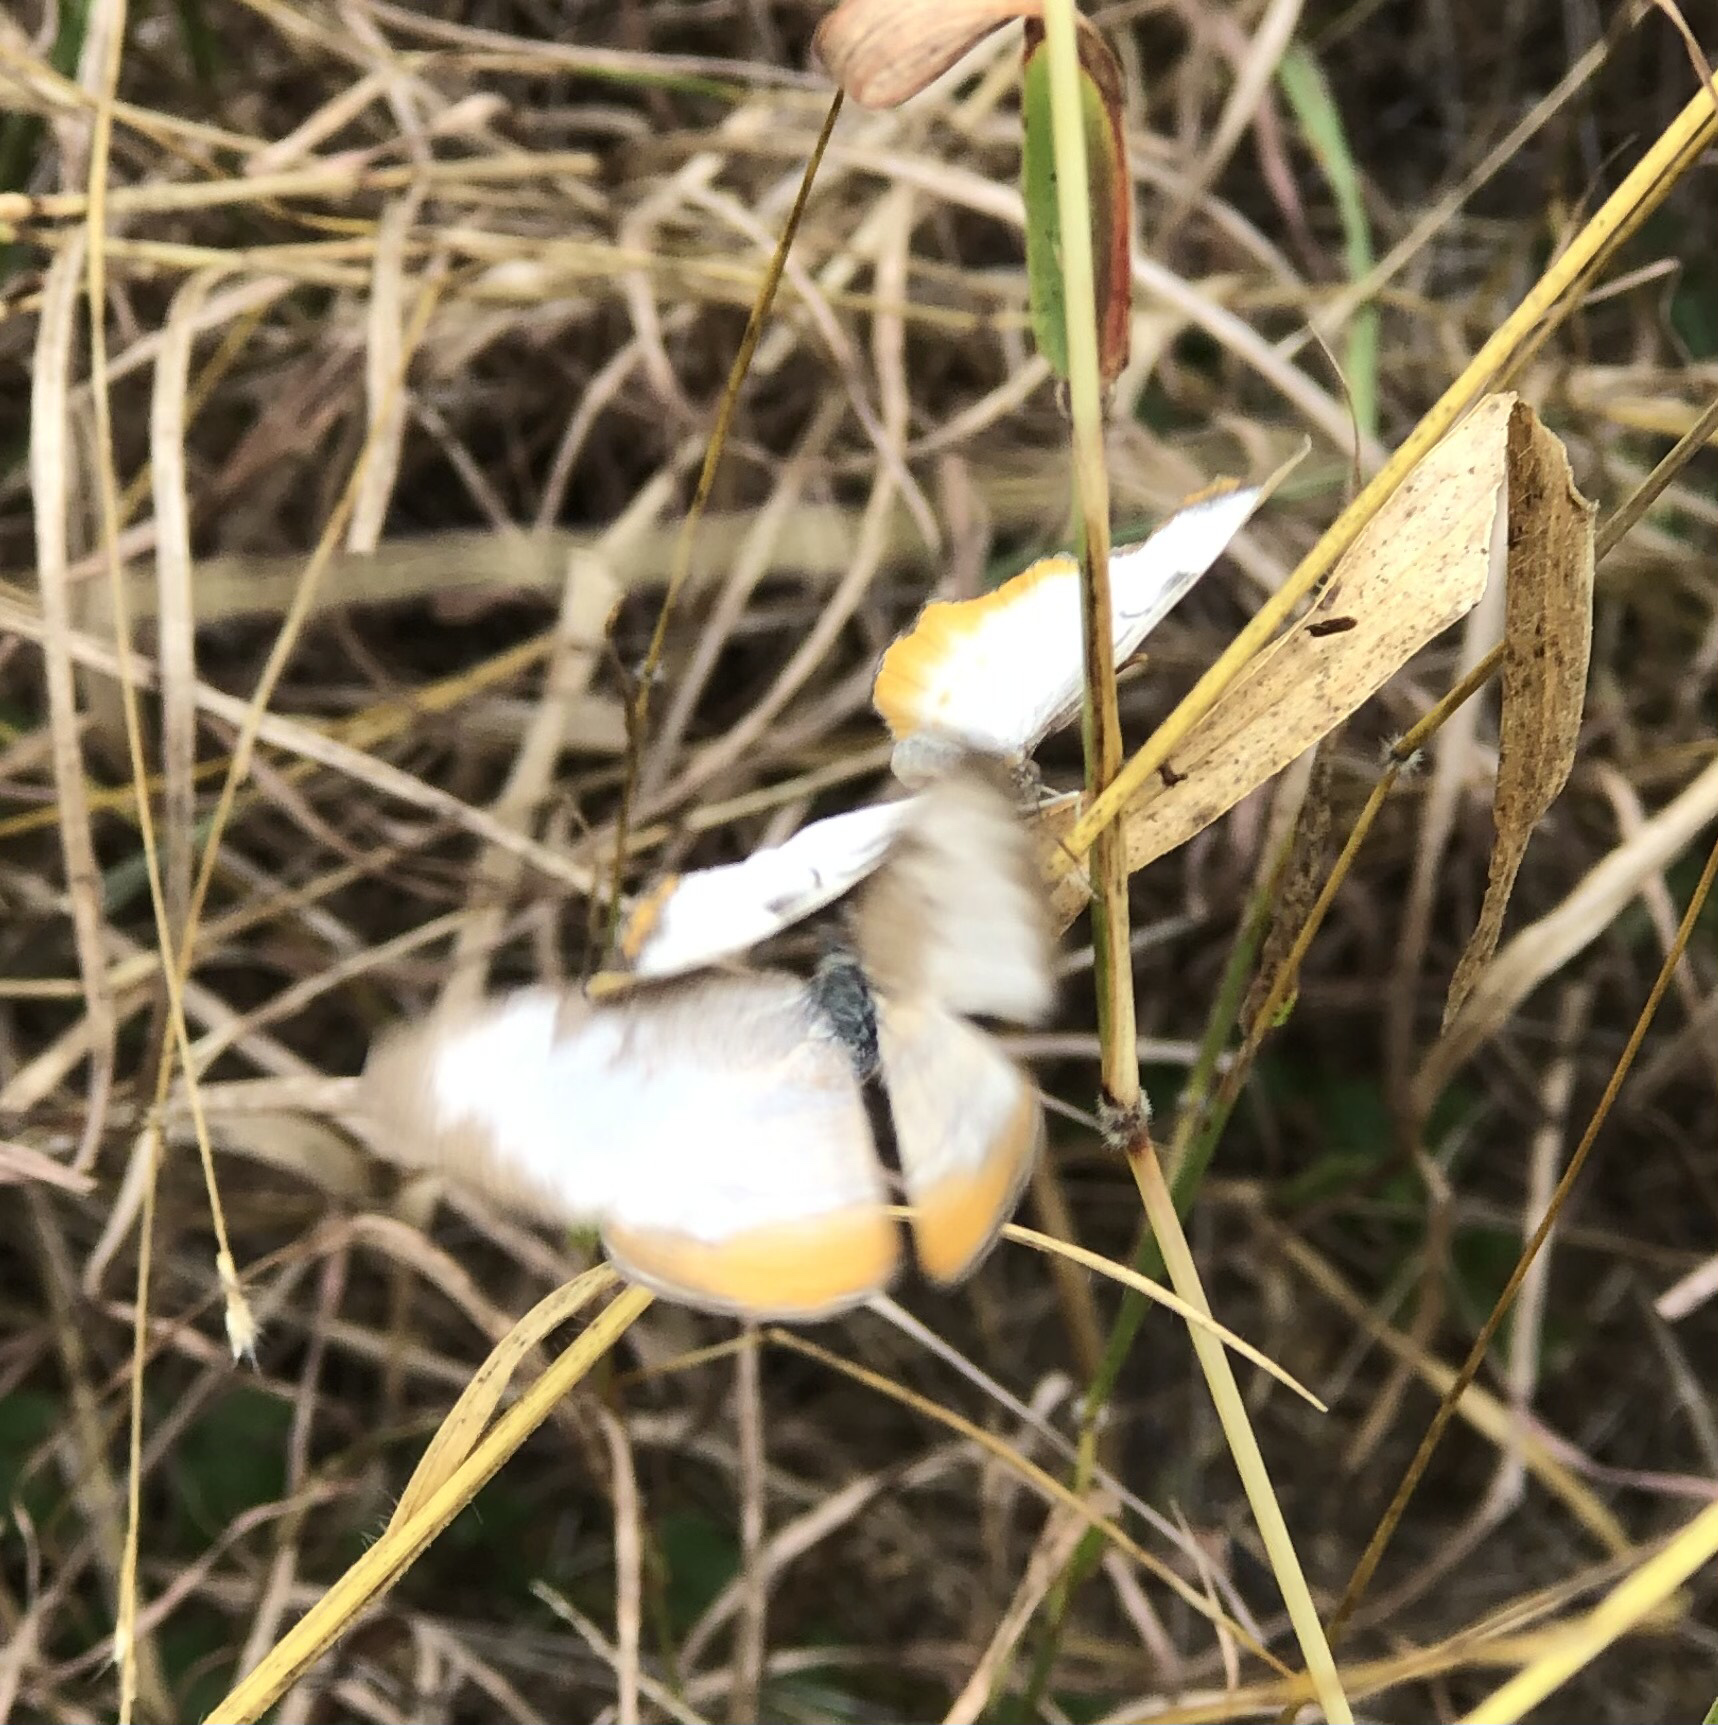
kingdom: Animalia
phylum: Arthropoda
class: Insecta
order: Lepidoptera
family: Nymphalidae
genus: Mestra
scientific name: Mestra amymone
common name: Common mestra
